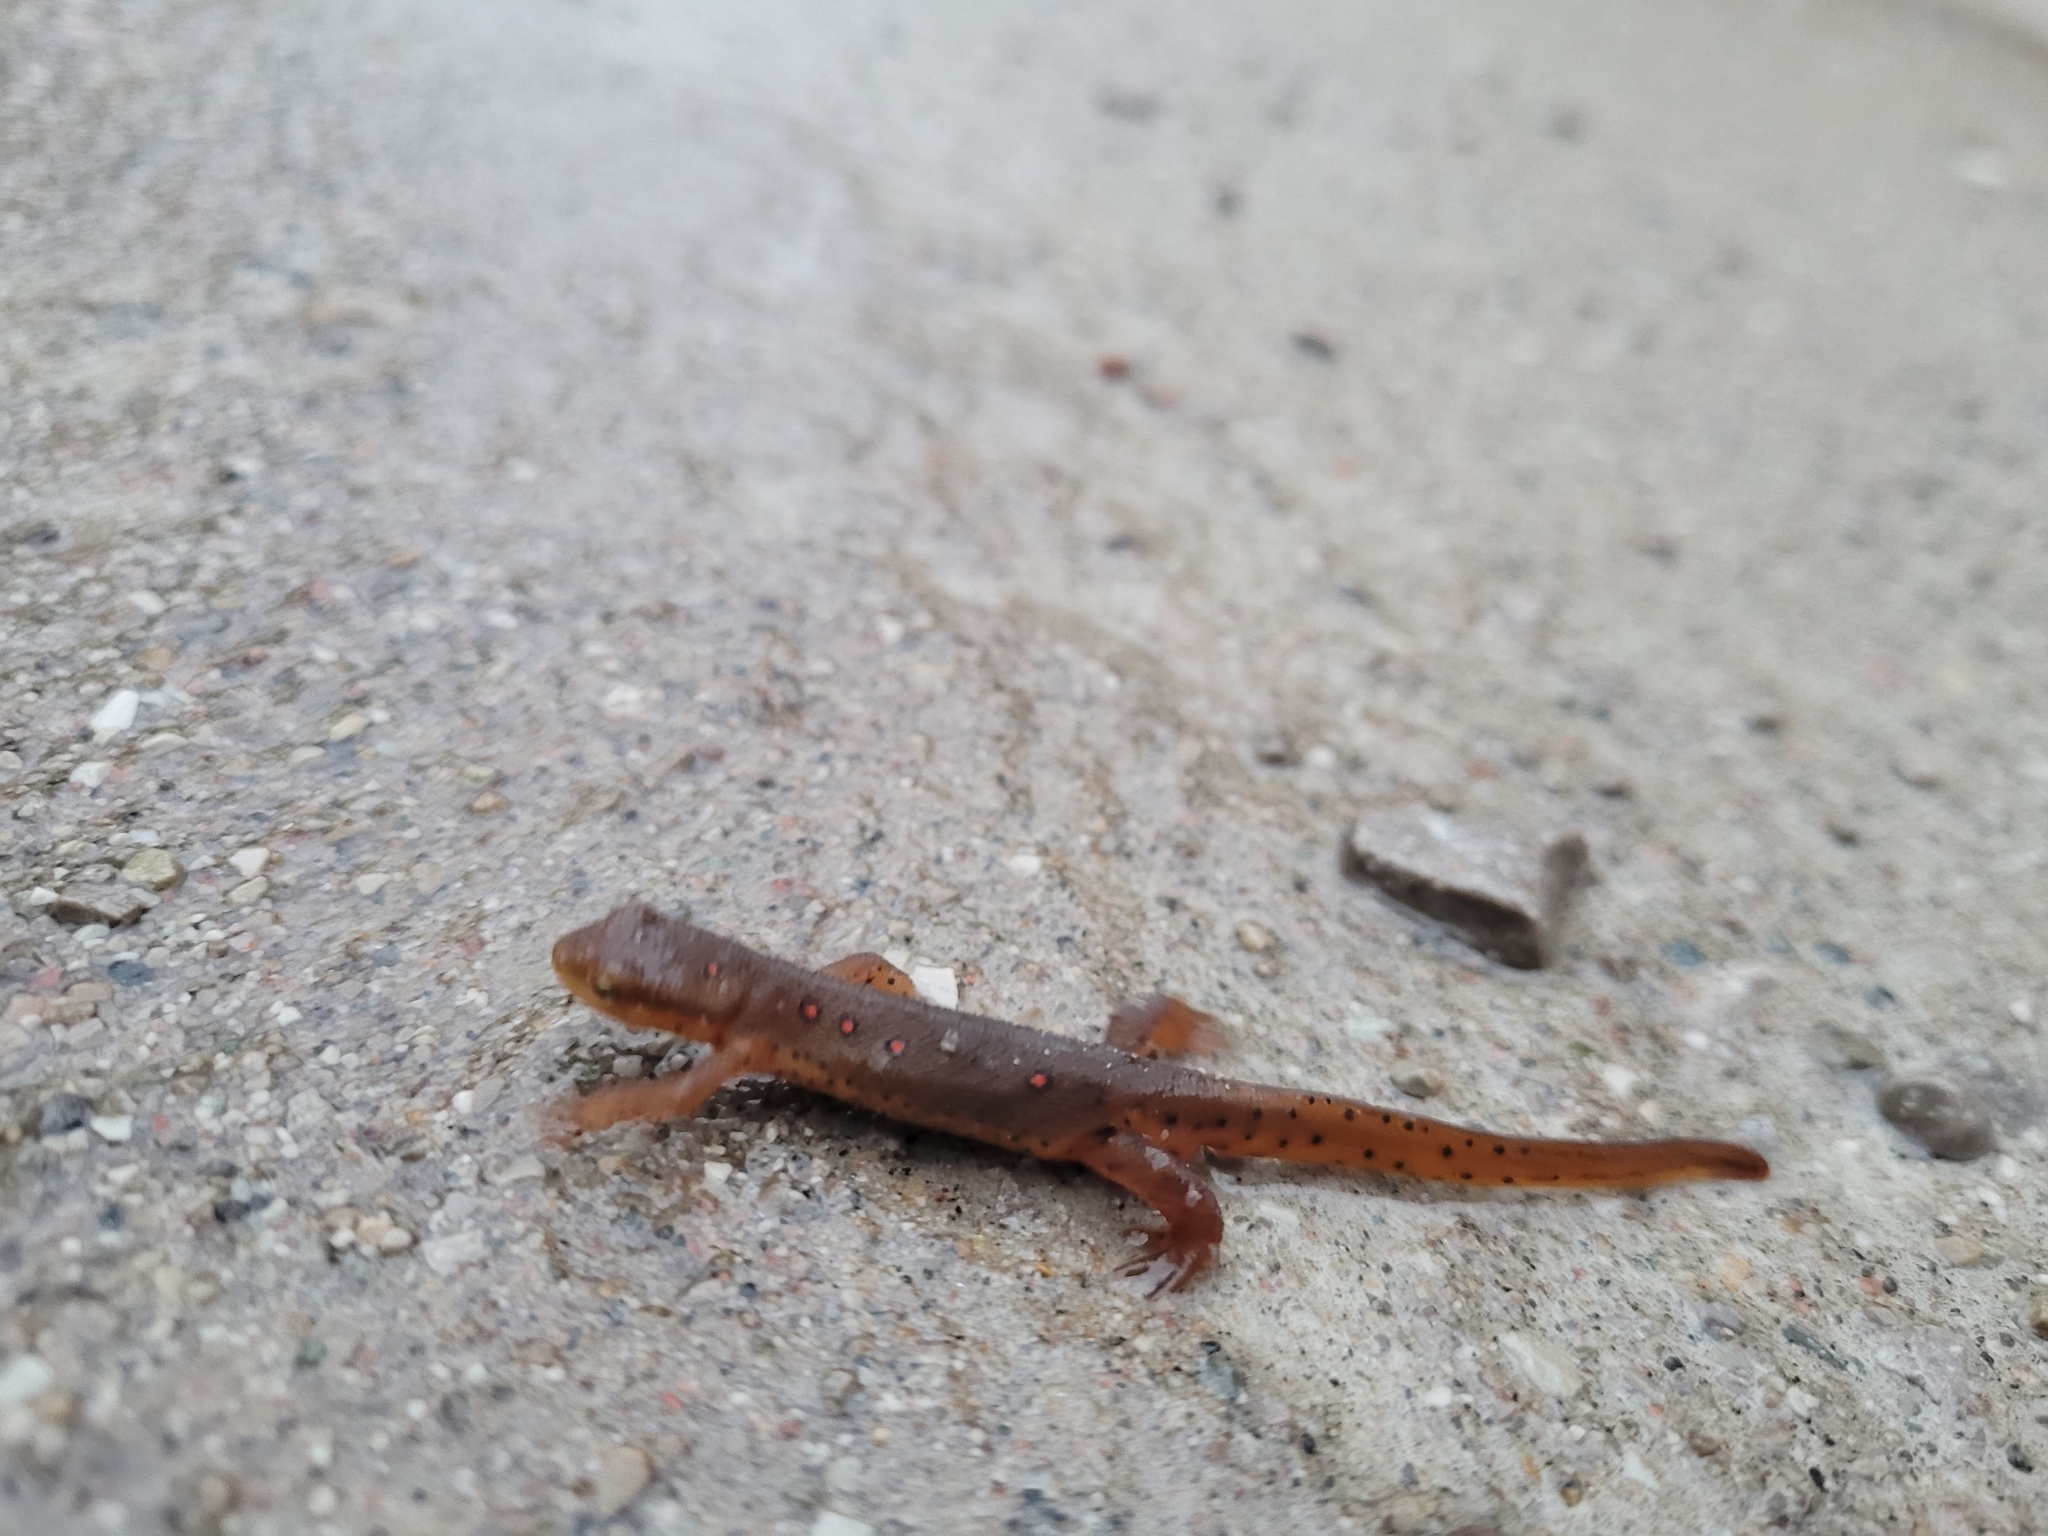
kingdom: Animalia
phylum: Chordata
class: Amphibia
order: Caudata
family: Salamandridae
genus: Notophthalmus
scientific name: Notophthalmus viridescens
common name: Eastern newt
